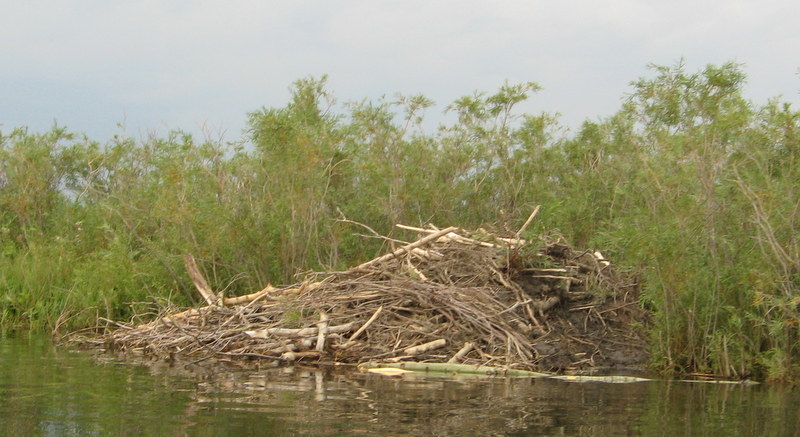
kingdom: Animalia
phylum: Chordata
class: Mammalia
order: Rodentia
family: Castoridae
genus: Castor
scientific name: Castor canadensis
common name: American beaver
